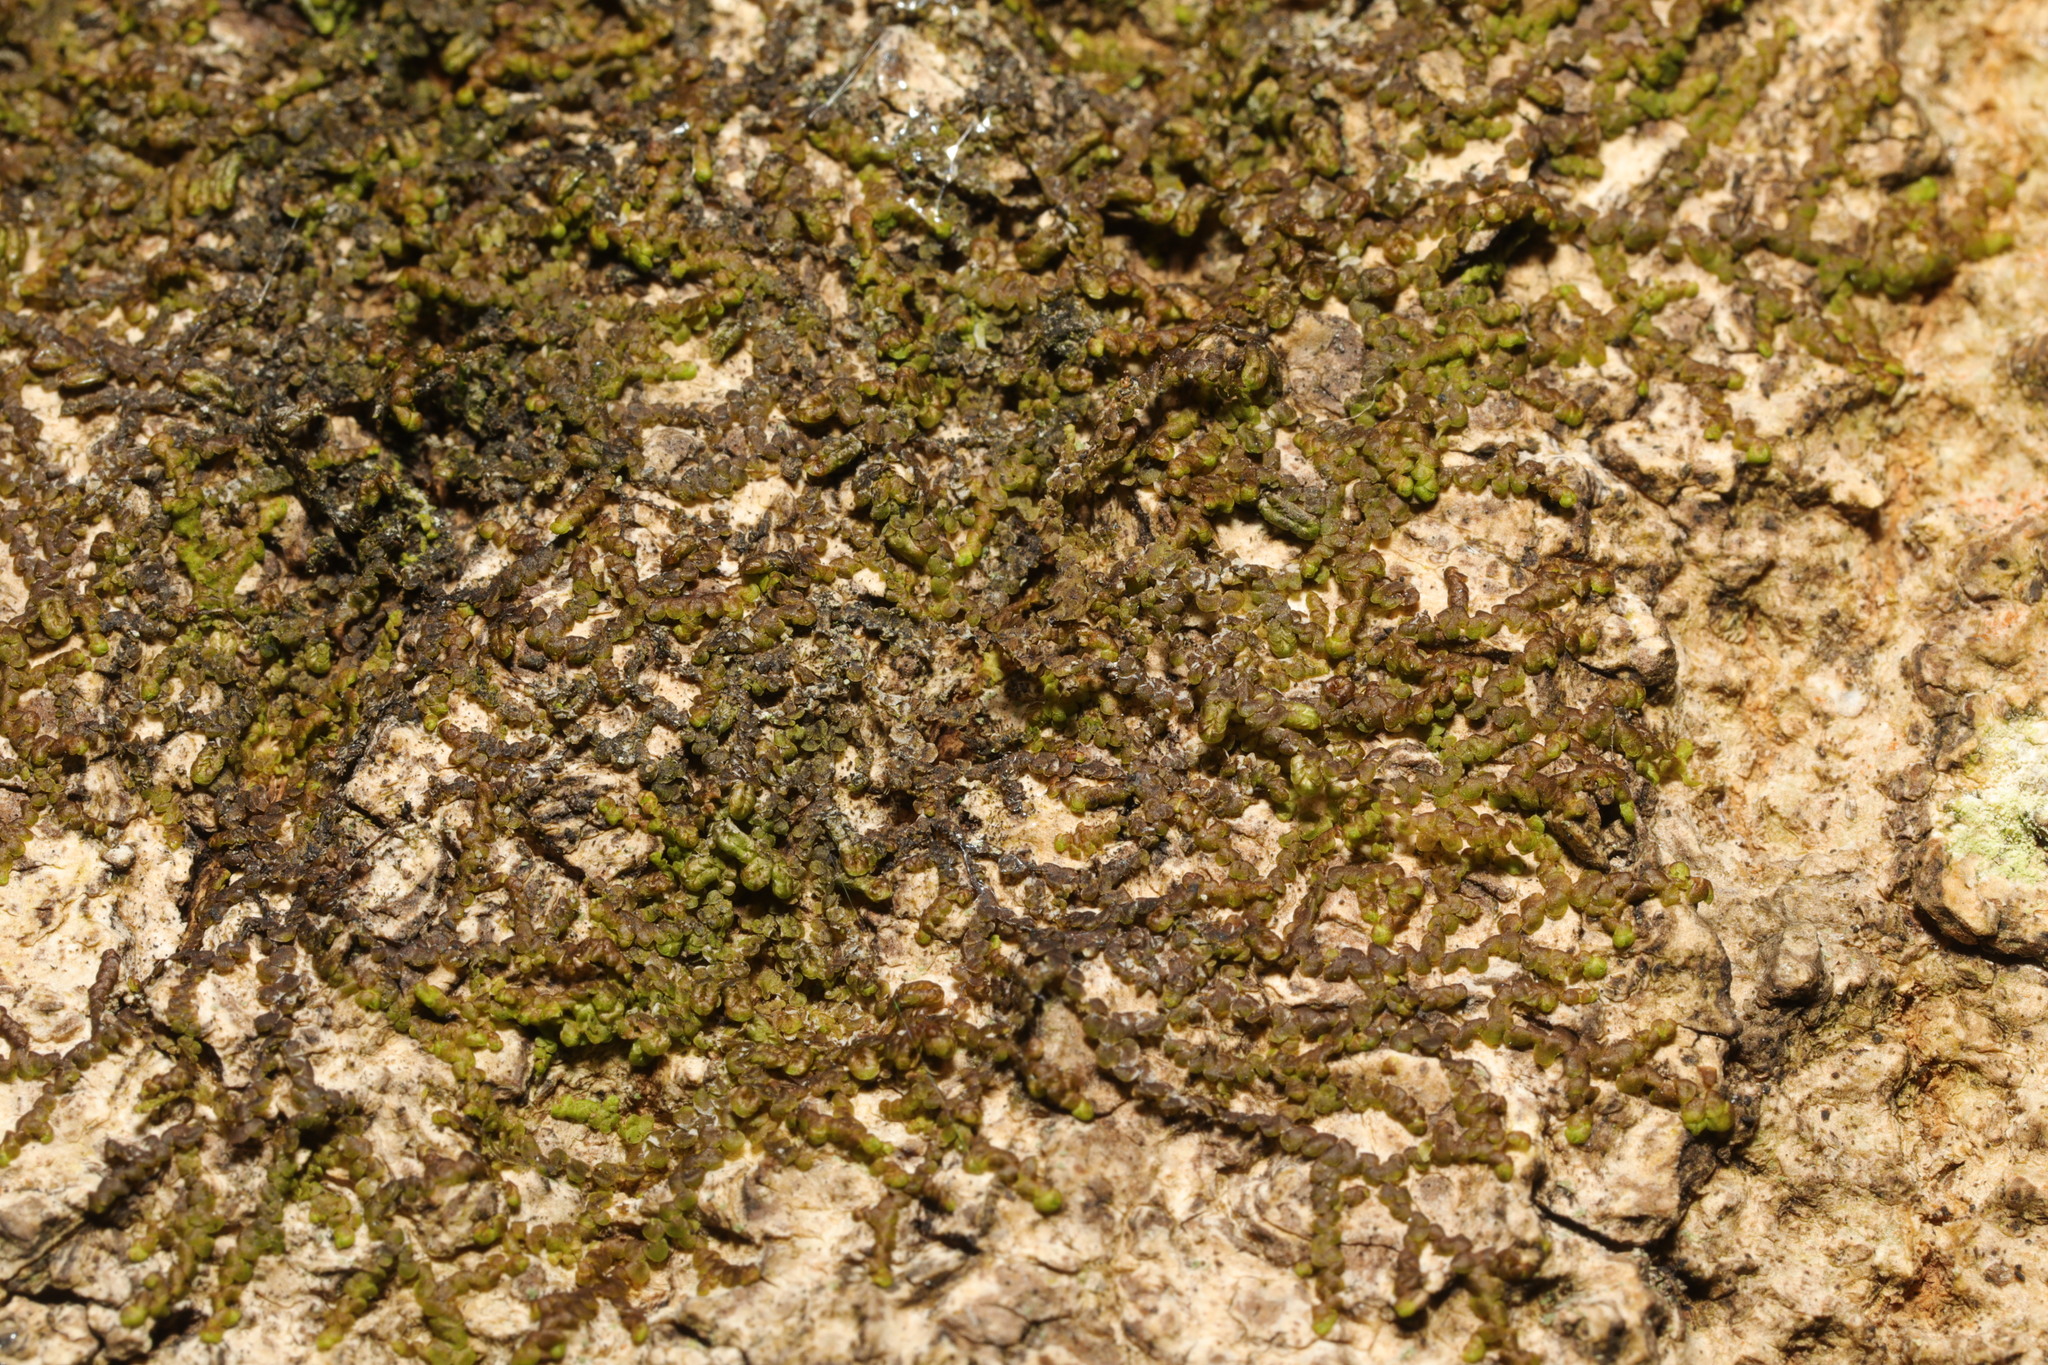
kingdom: Plantae
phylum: Marchantiophyta
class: Jungermanniopsida
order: Porellales
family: Frullaniaceae
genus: Frullania
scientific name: Frullania dilatata
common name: Dilated scalewort
